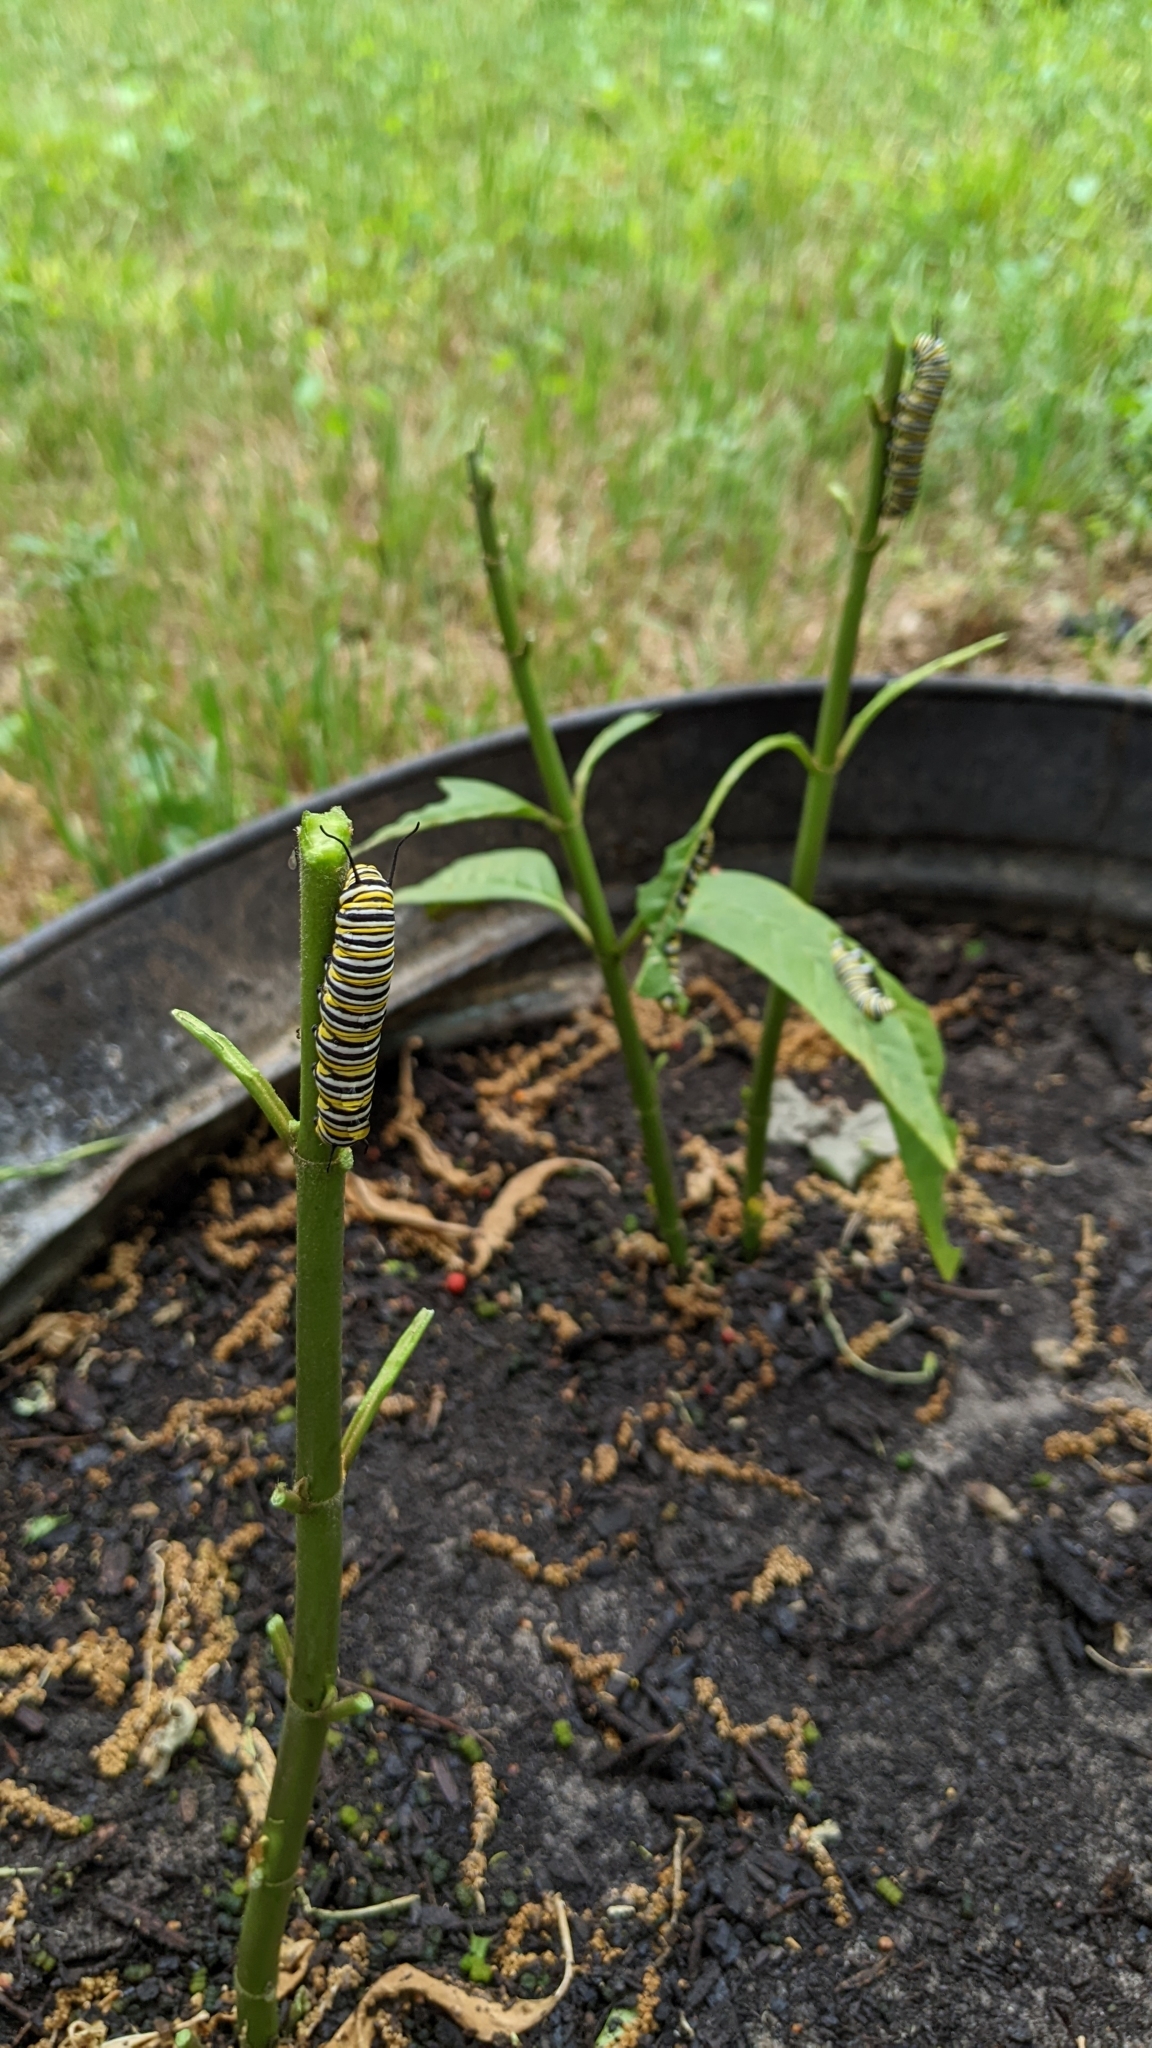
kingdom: Animalia
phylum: Arthropoda
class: Insecta
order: Lepidoptera
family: Nymphalidae
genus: Danaus
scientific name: Danaus plexippus
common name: Monarch
